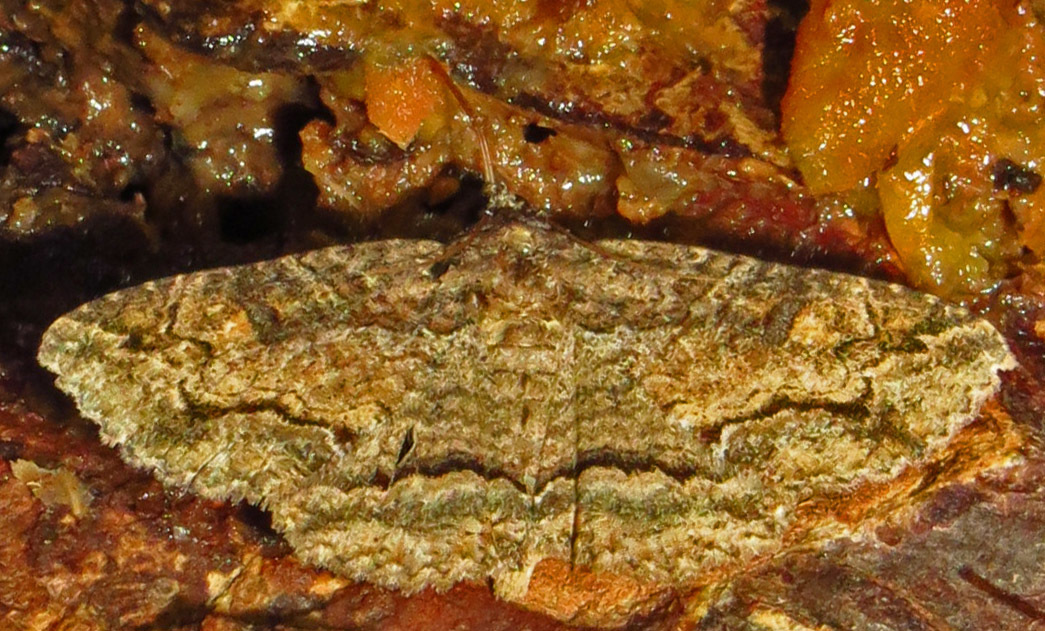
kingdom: Animalia
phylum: Arthropoda
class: Insecta
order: Lepidoptera
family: Erebidae
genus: Zale
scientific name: Zale galbanata
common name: Maple zale
